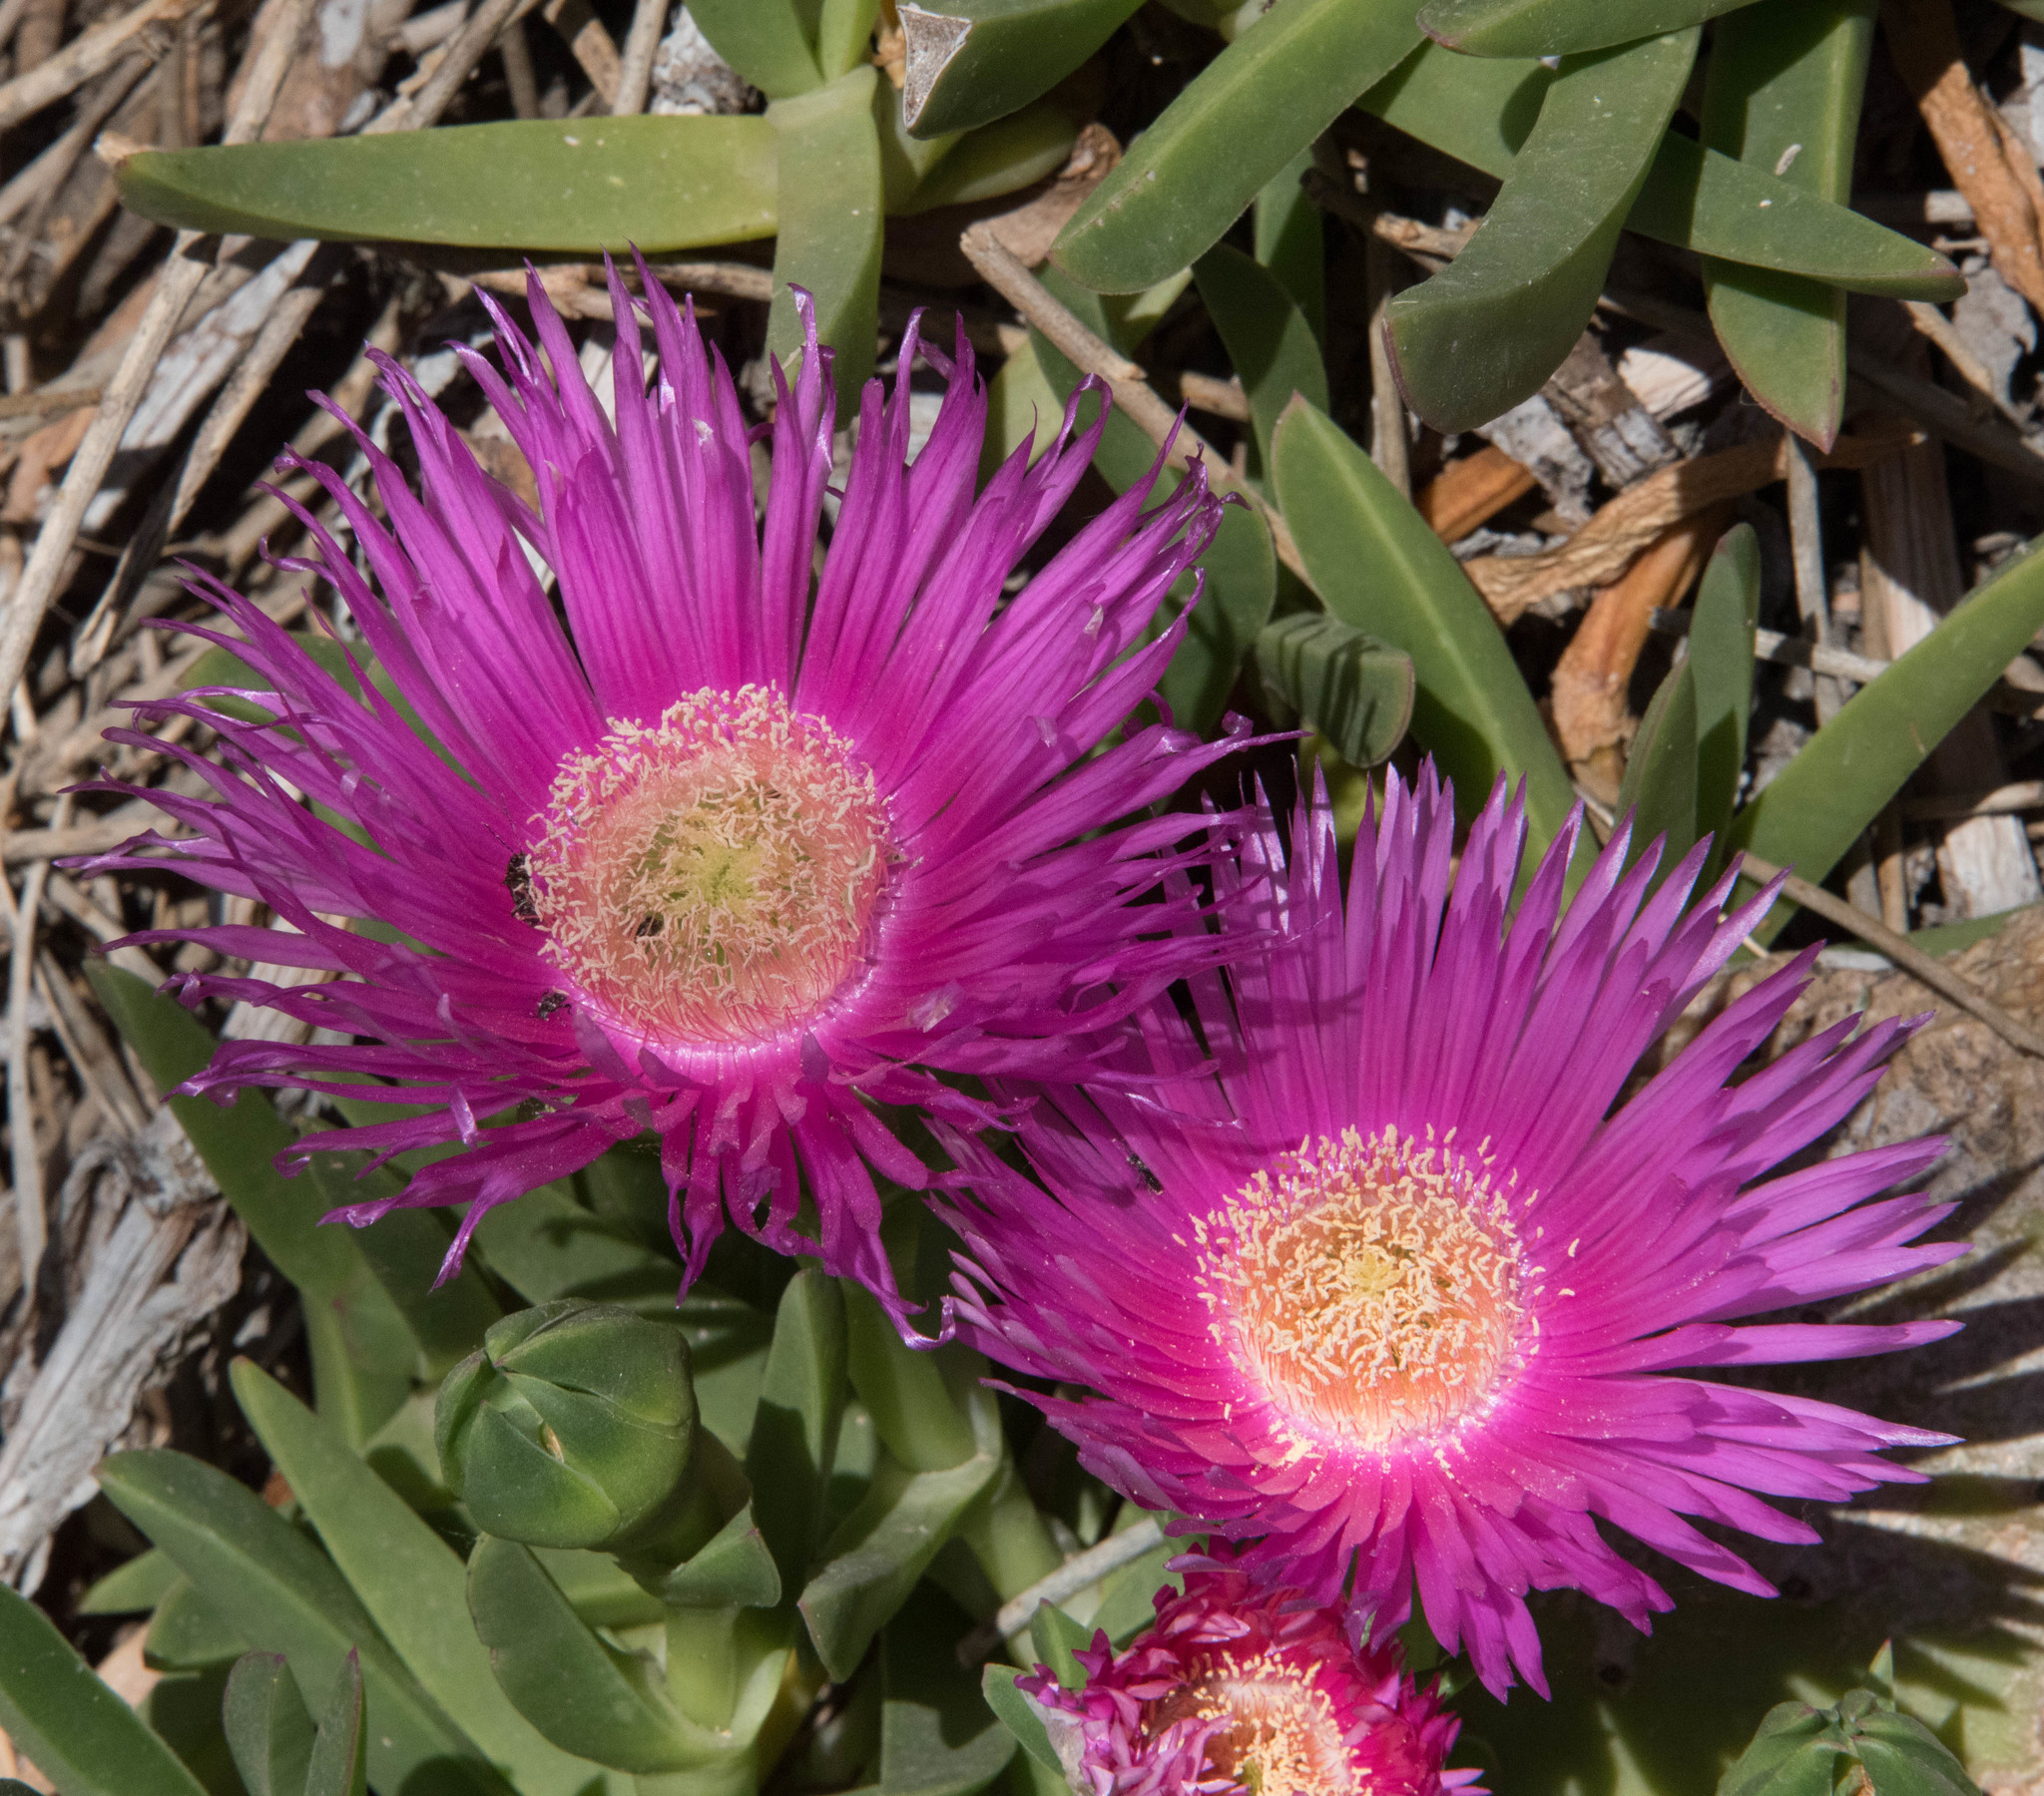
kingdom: Plantae
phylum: Tracheophyta
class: Magnoliopsida
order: Caryophyllales
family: Aizoaceae
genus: Carpobrotus
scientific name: Carpobrotus acinaciformis
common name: Sally-my-handsome
